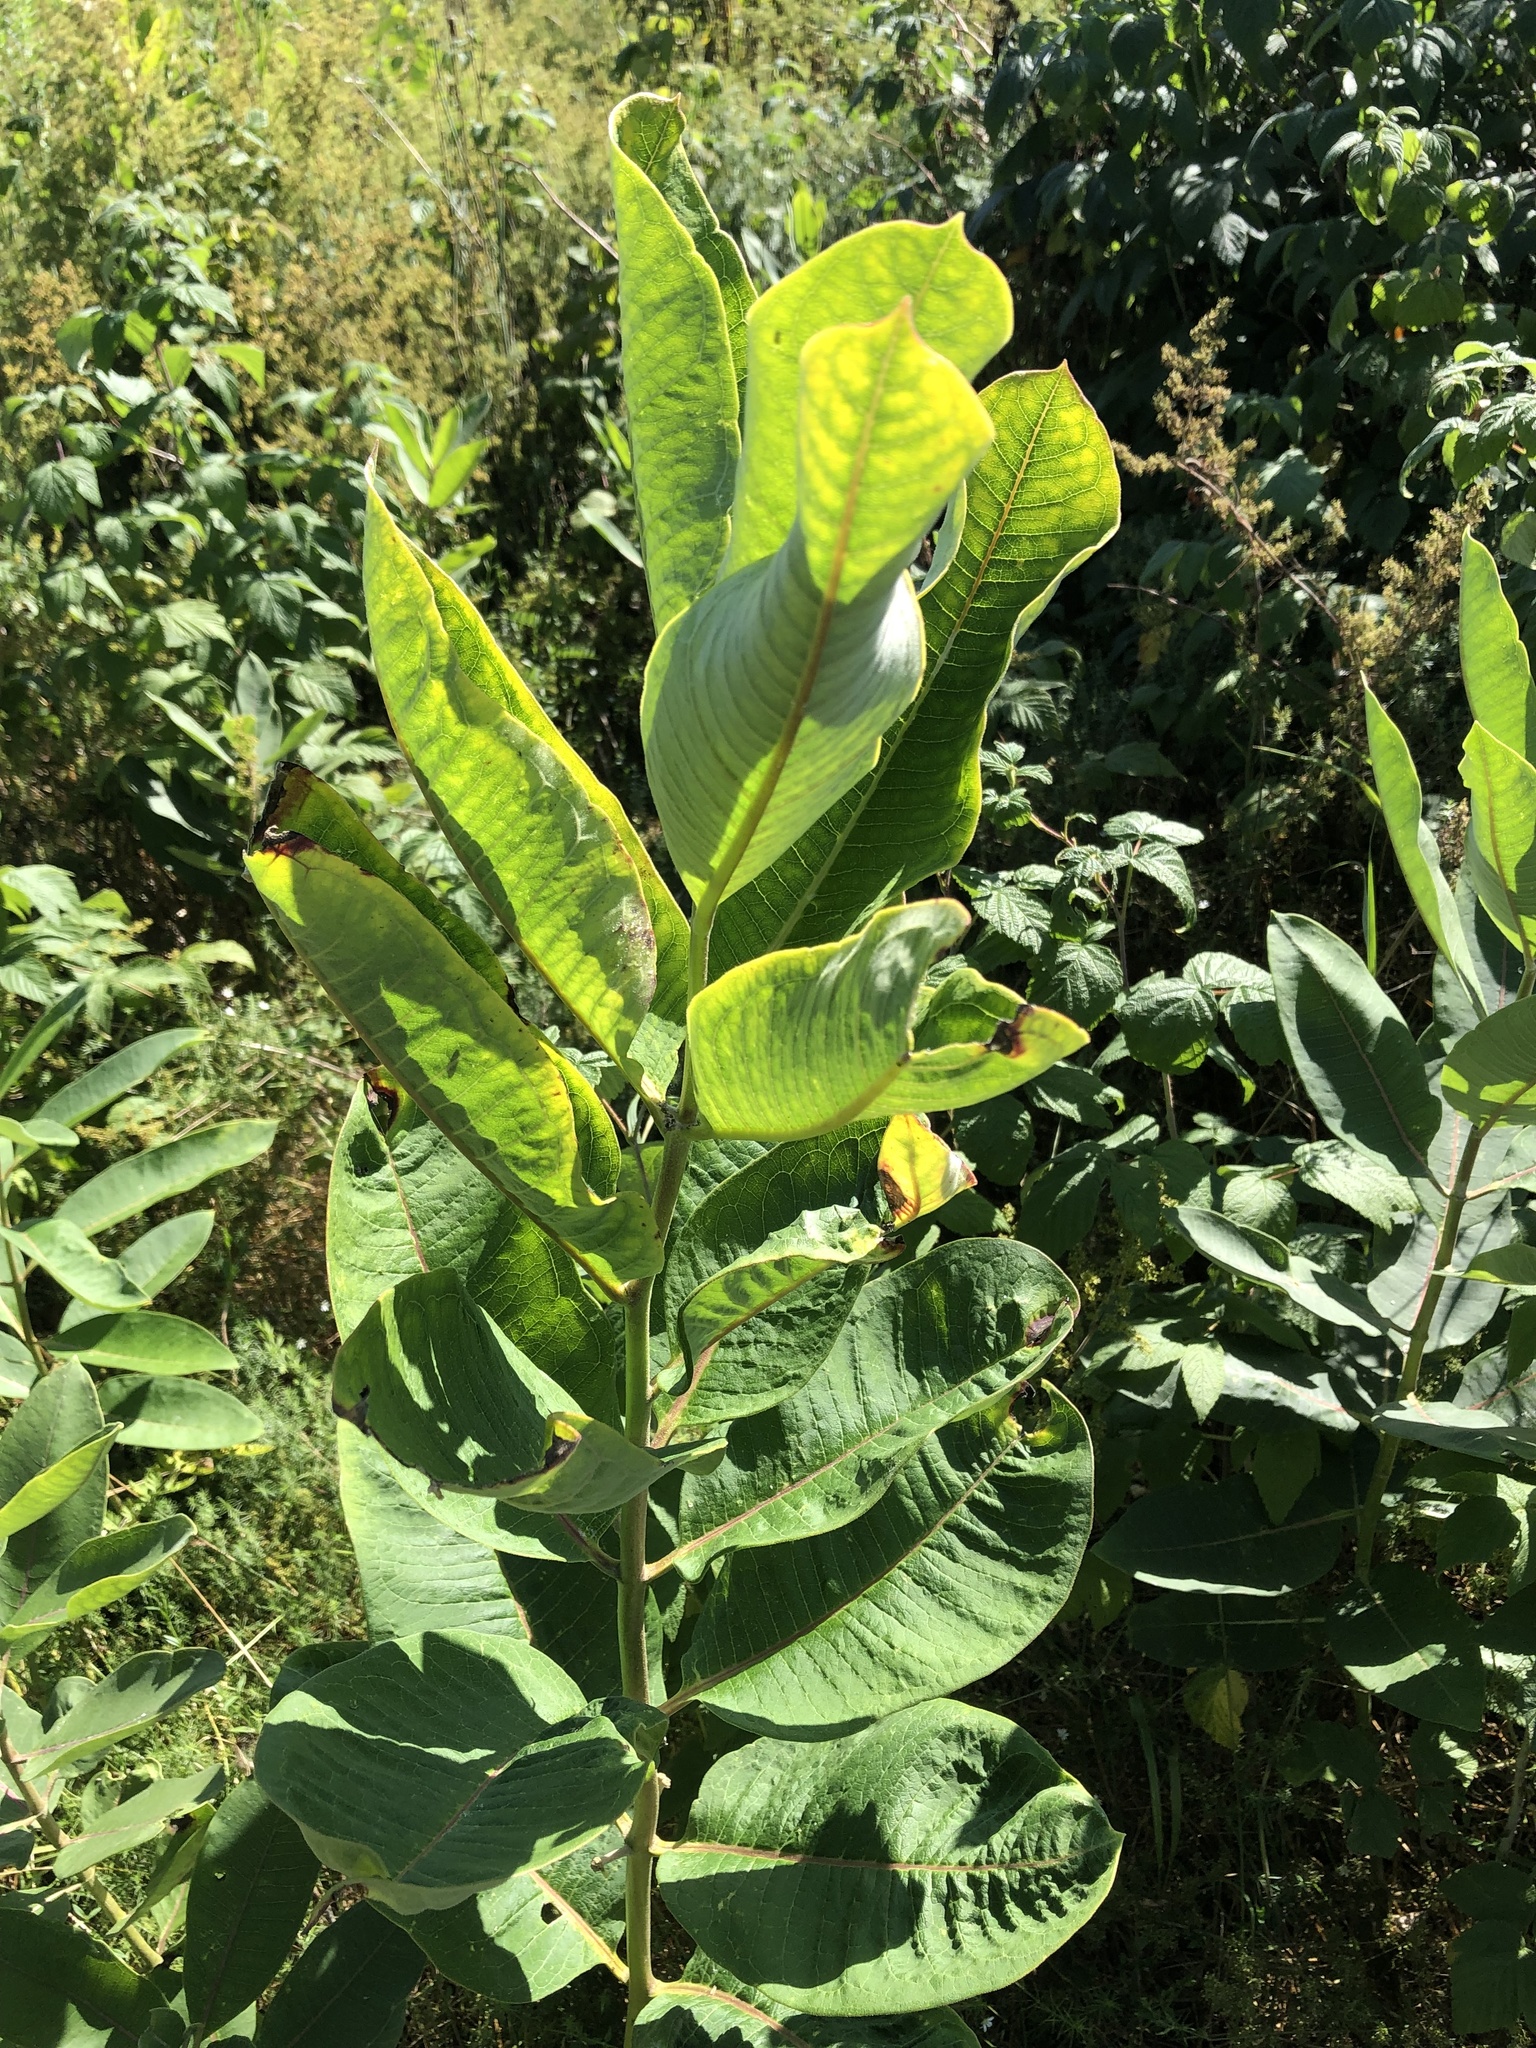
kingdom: Plantae
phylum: Tracheophyta
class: Magnoliopsida
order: Gentianales
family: Apocynaceae
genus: Asclepias
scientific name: Asclepias syriaca
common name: Common milkweed
